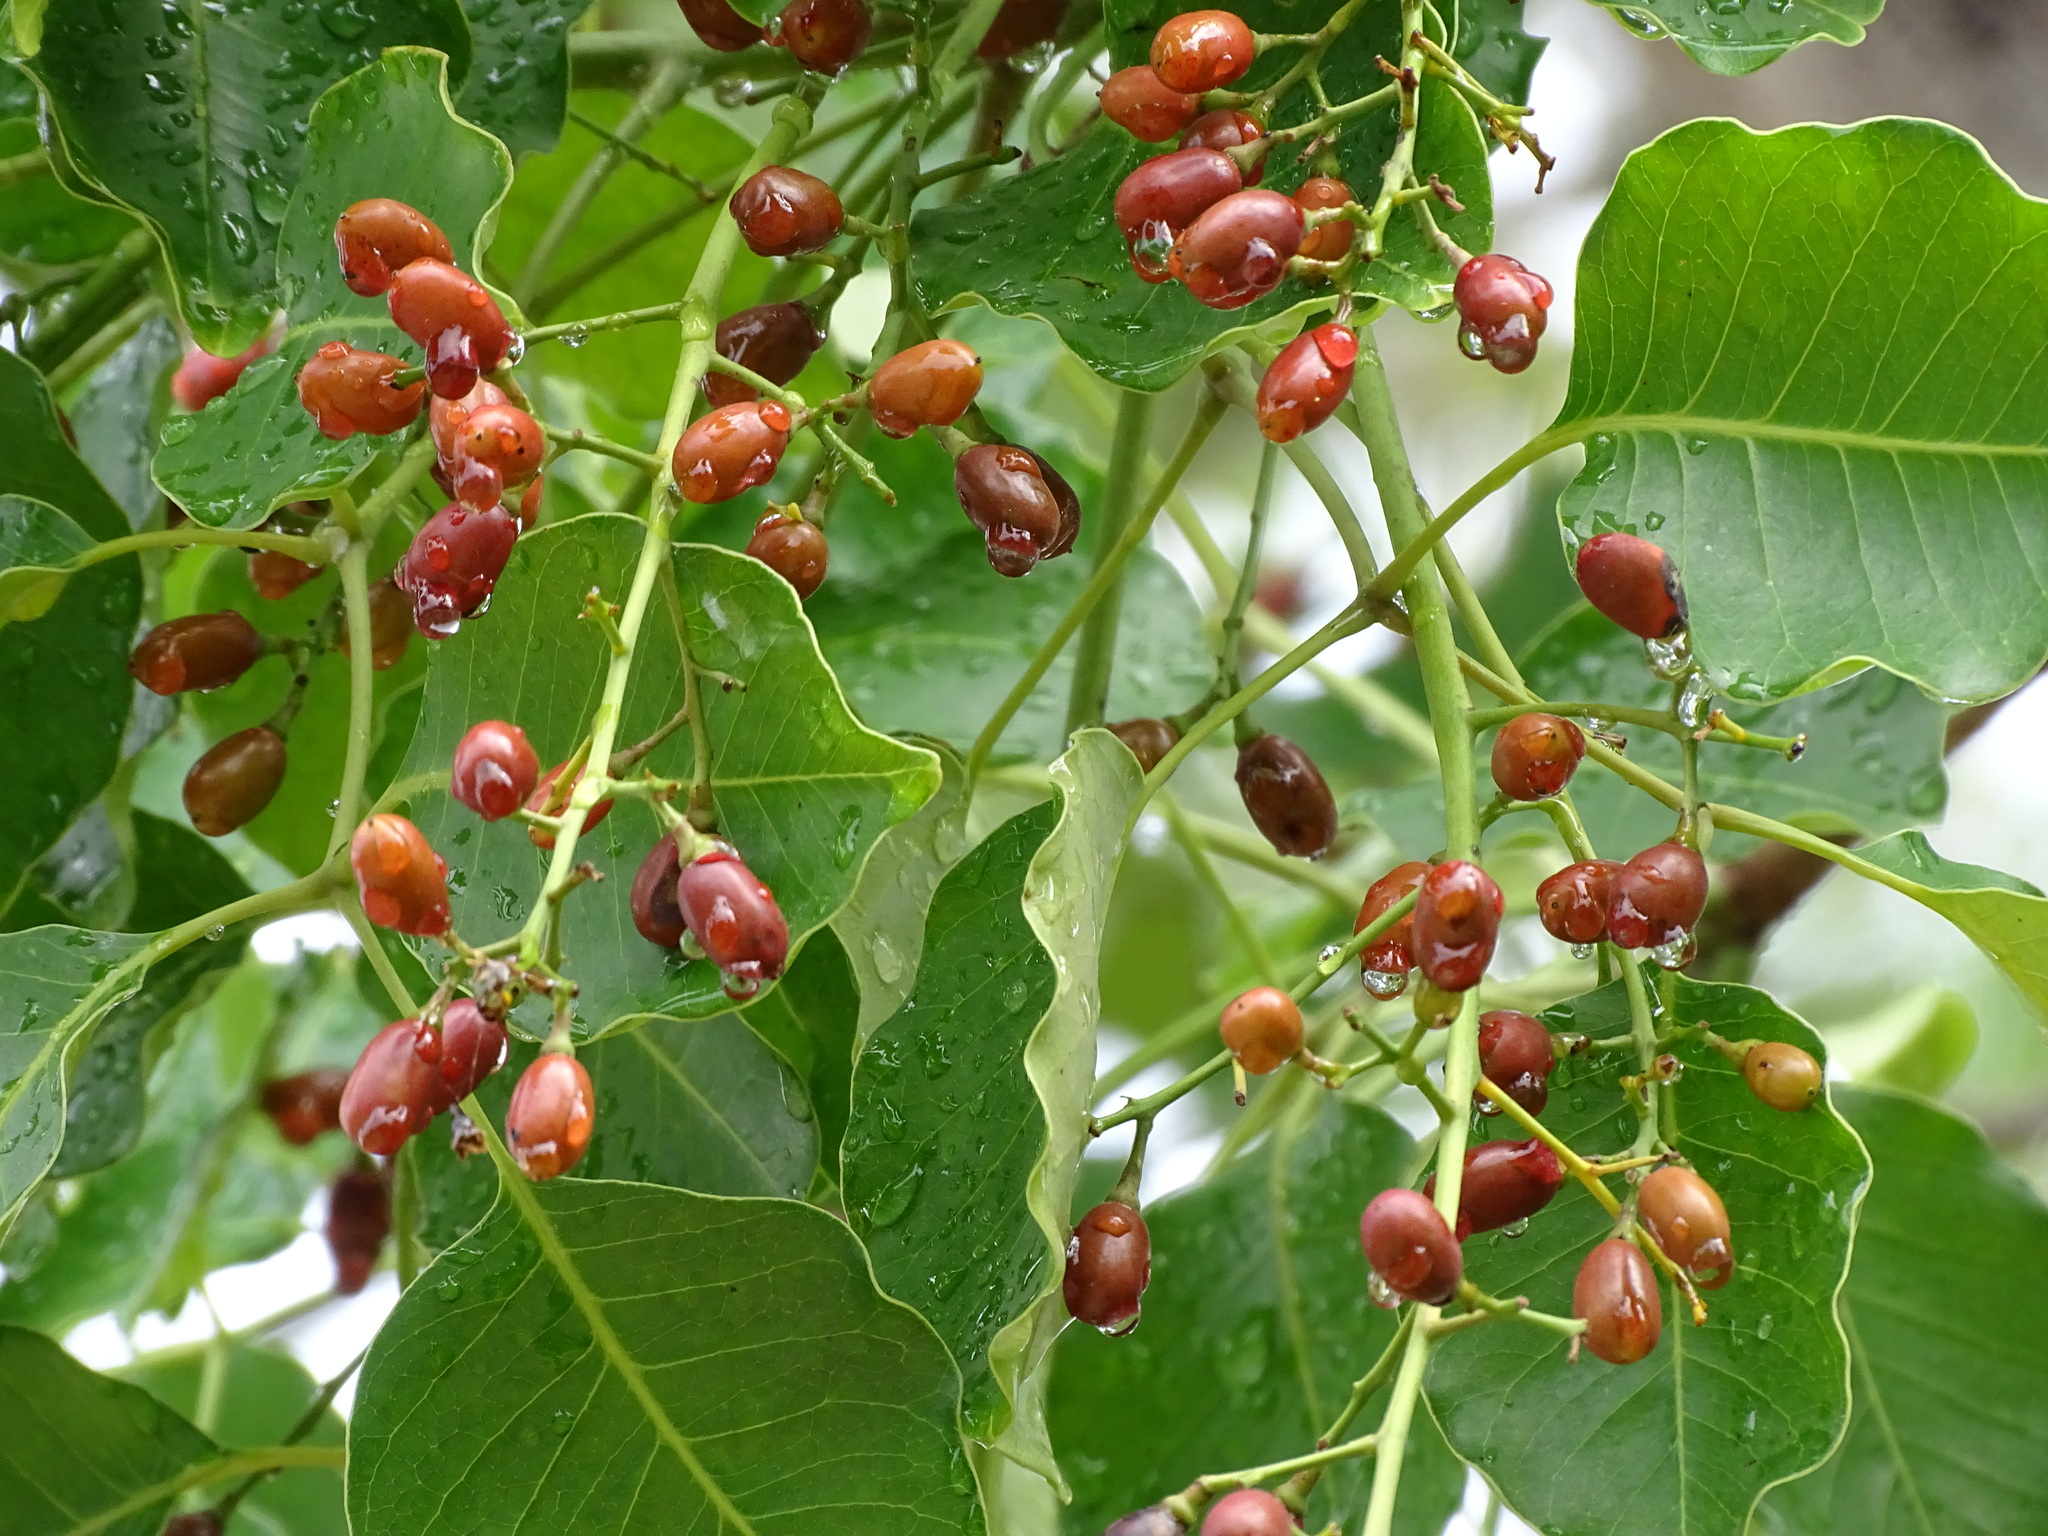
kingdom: Plantae
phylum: Tracheophyta
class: Magnoliopsida
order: Sapindales
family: Anacardiaceae
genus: Metopium
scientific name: Metopium brownei
